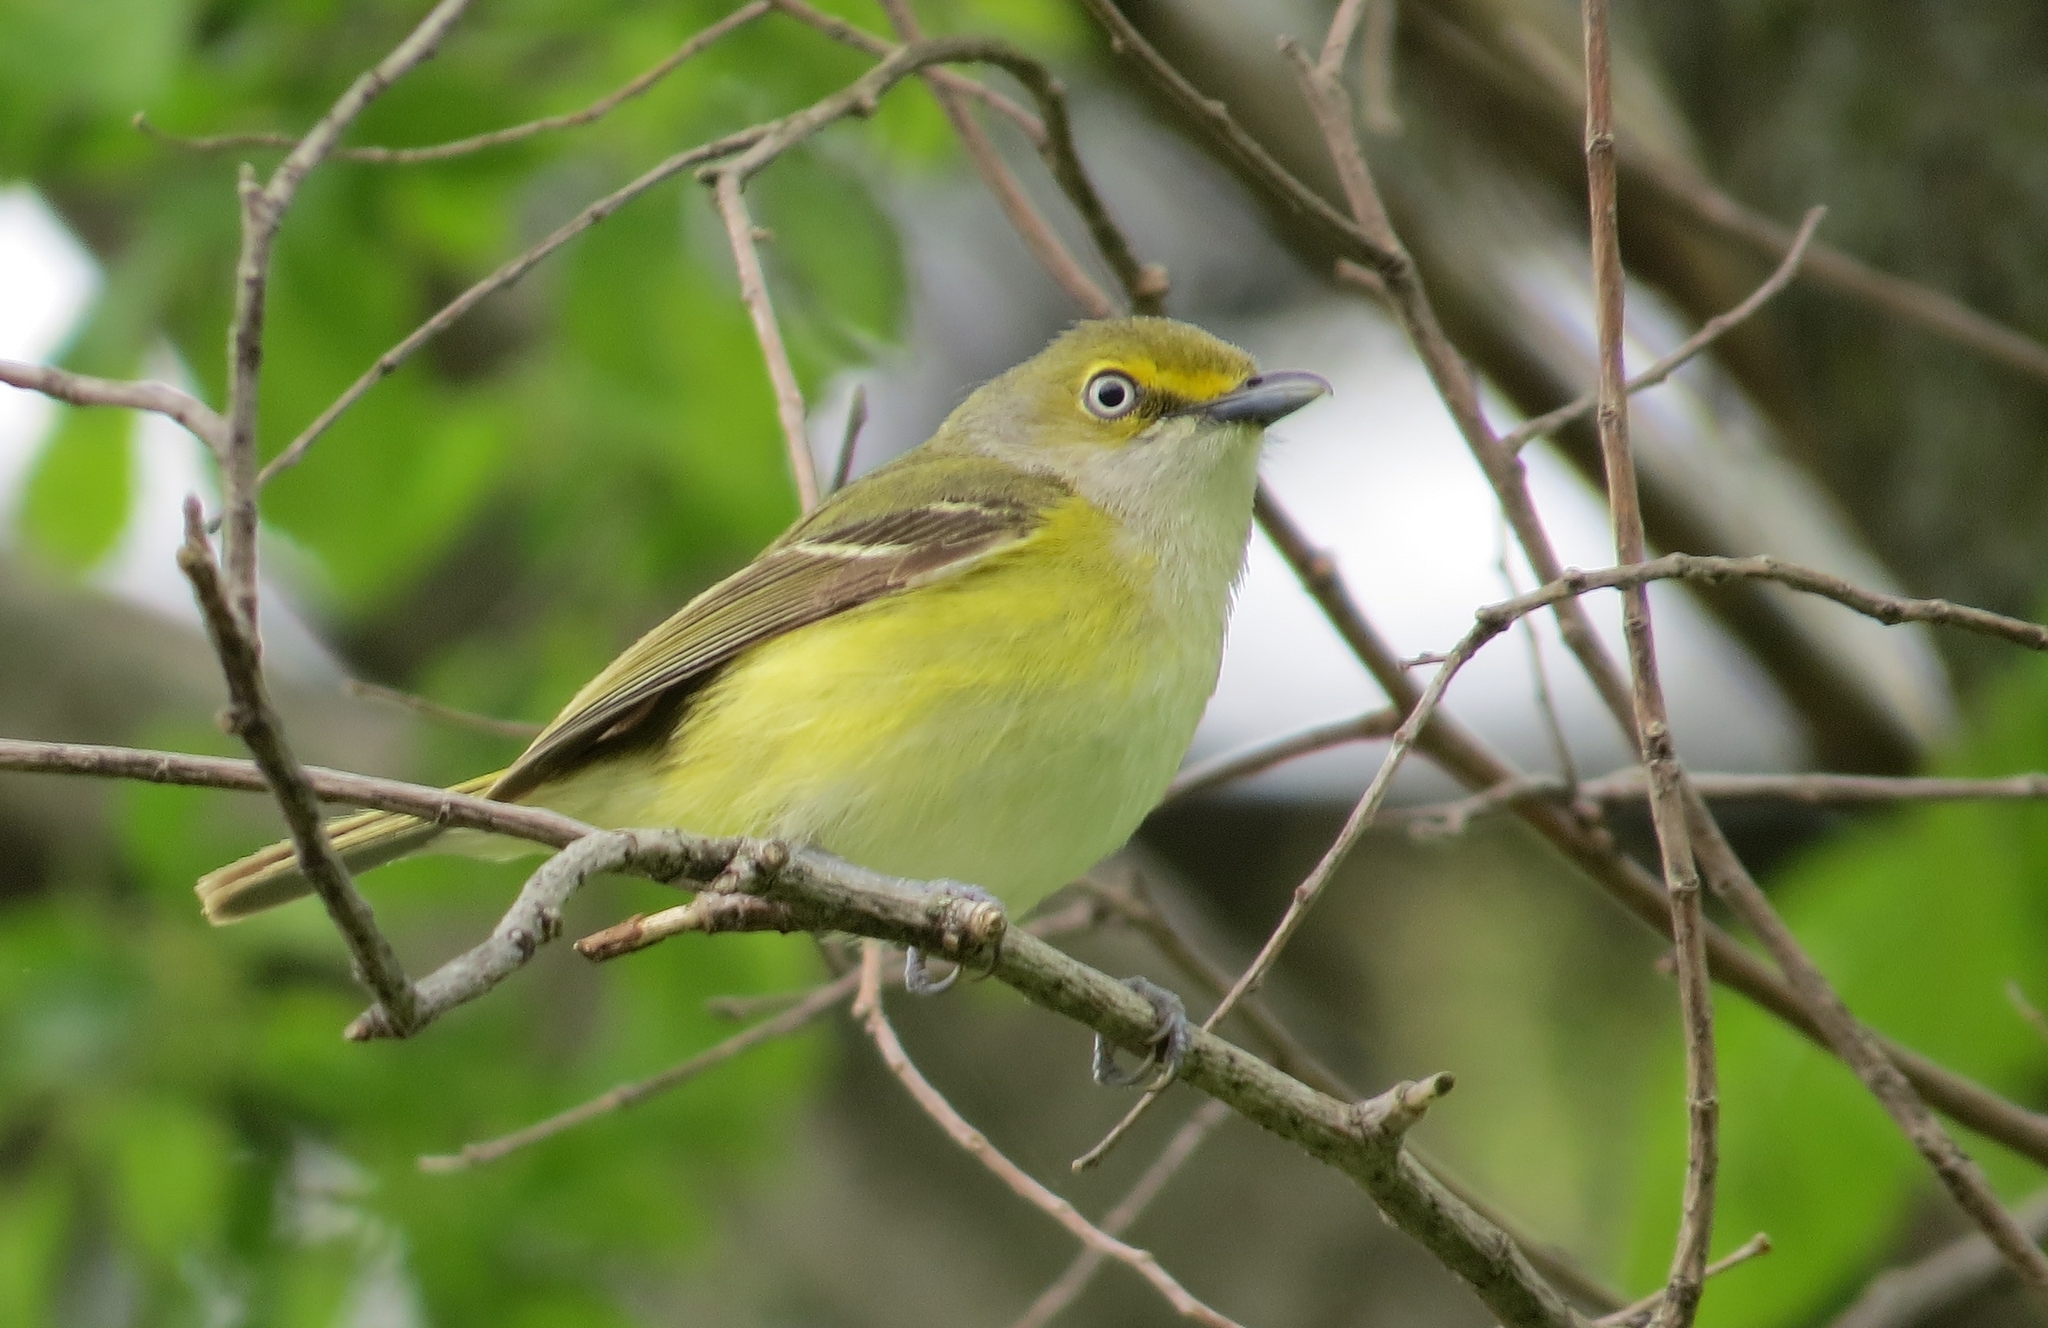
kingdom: Animalia
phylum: Chordata
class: Aves
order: Passeriformes
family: Vireonidae
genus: Vireo
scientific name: Vireo griseus
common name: White-eyed vireo
